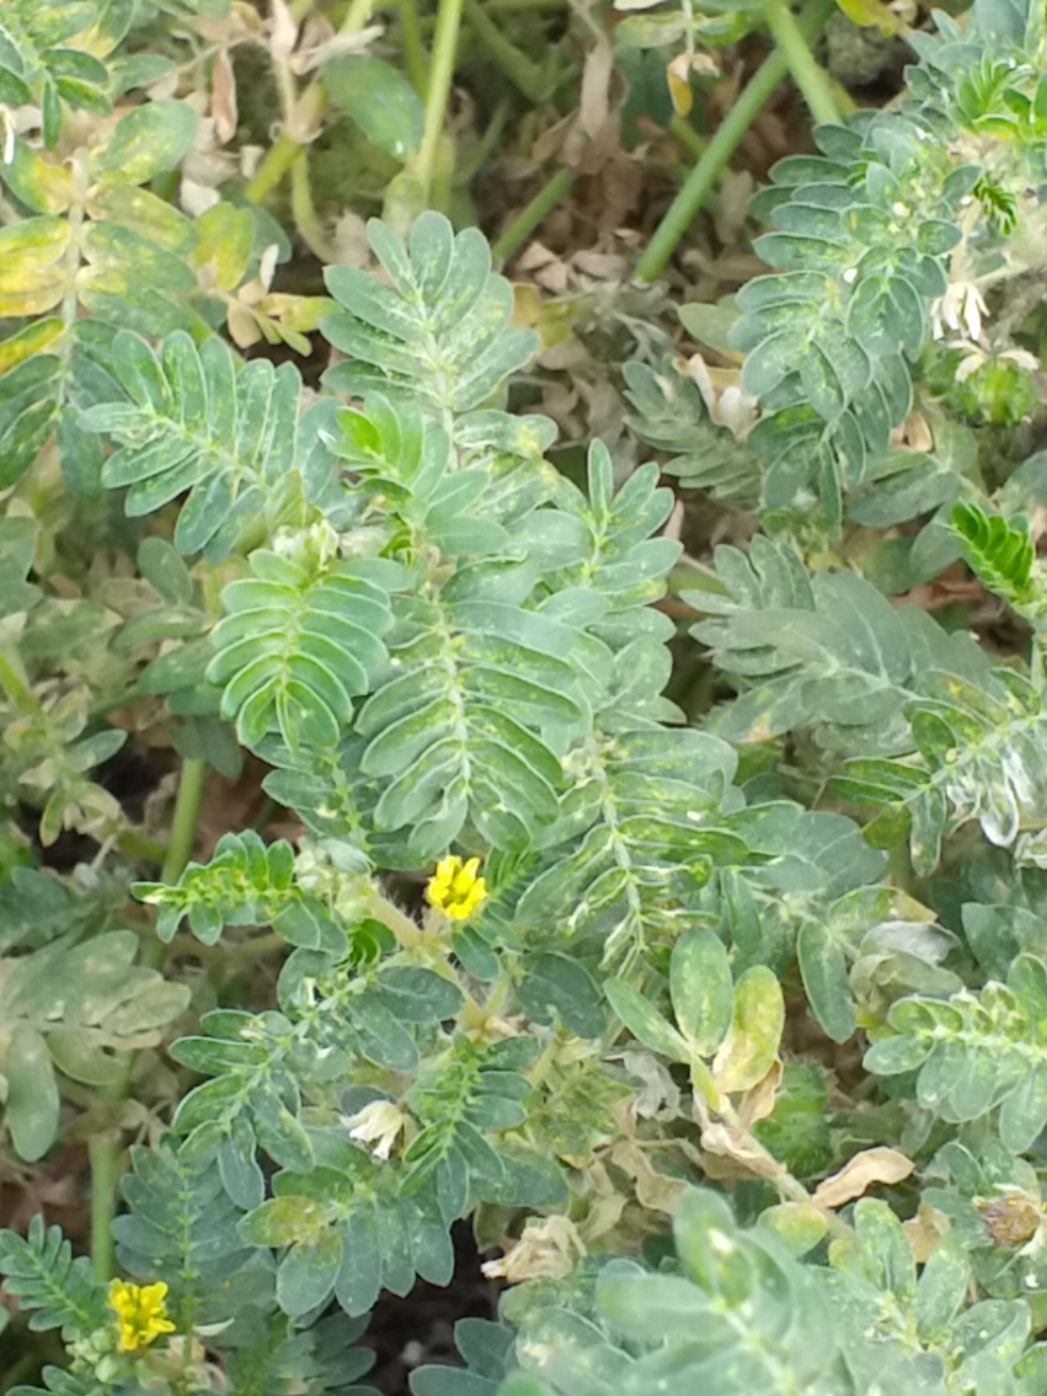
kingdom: Plantae
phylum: Tracheophyta
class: Magnoliopsida
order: Zygophyllales
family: Zygophyllaceae
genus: Tribulus
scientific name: Tribulus terrestris
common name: Puncturevine
